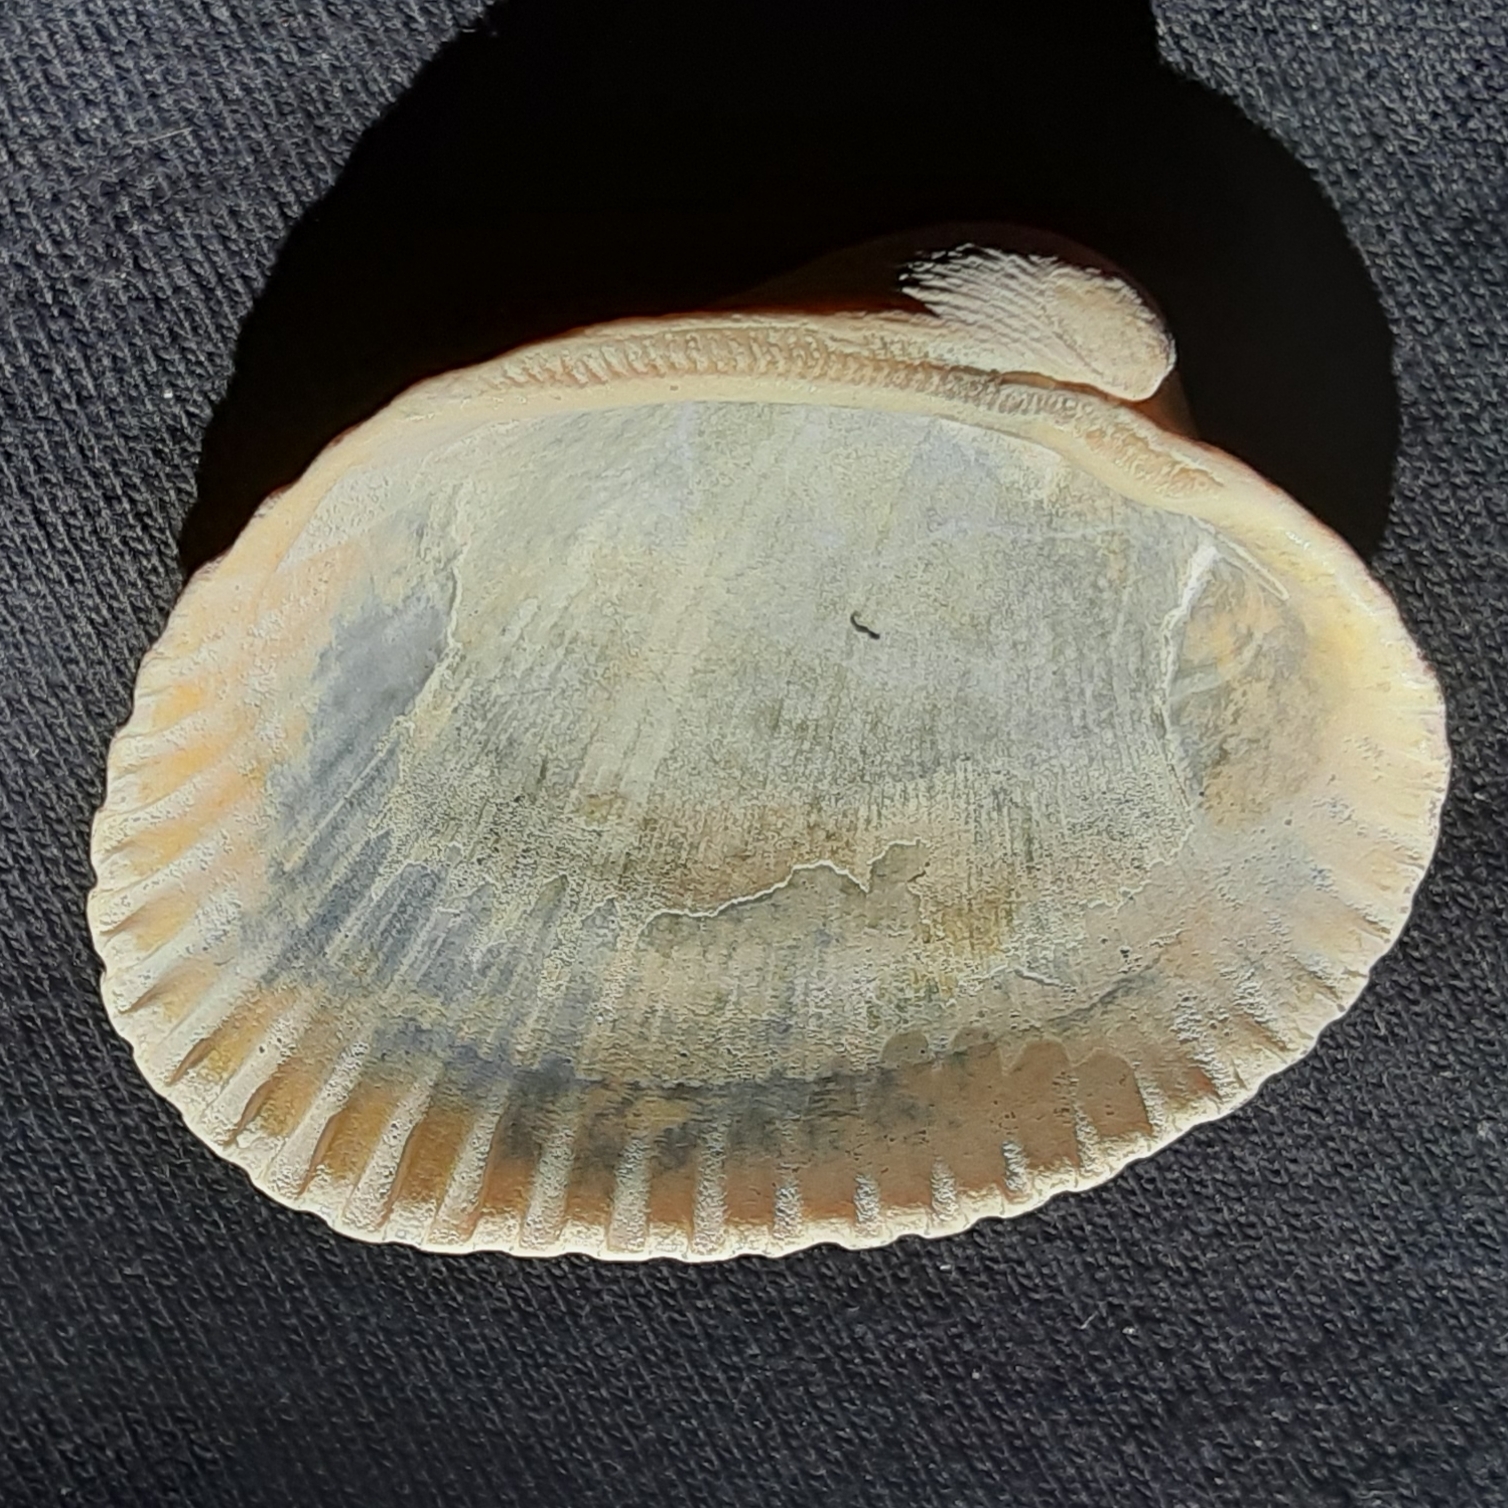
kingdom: Animalia
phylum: Mollusca
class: Bivalvia
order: Arcida
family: Arcidae
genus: Lunarca
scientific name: Lunarca ovalis
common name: Blood ark
